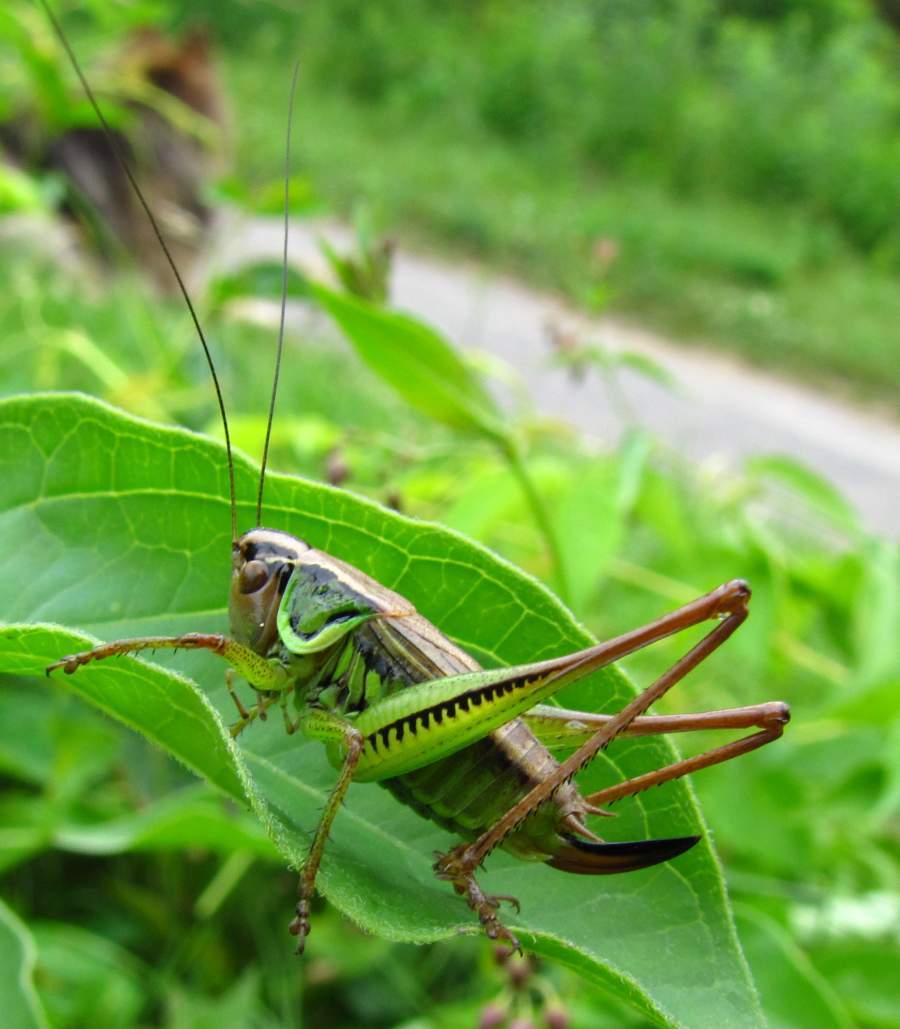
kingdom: Animalia
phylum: Arthropoda
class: Insecta
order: Orthoptera
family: Tettigoniidae
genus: Roeseliana
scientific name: Roeseliana roeselii
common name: Roesel's bush cricket
